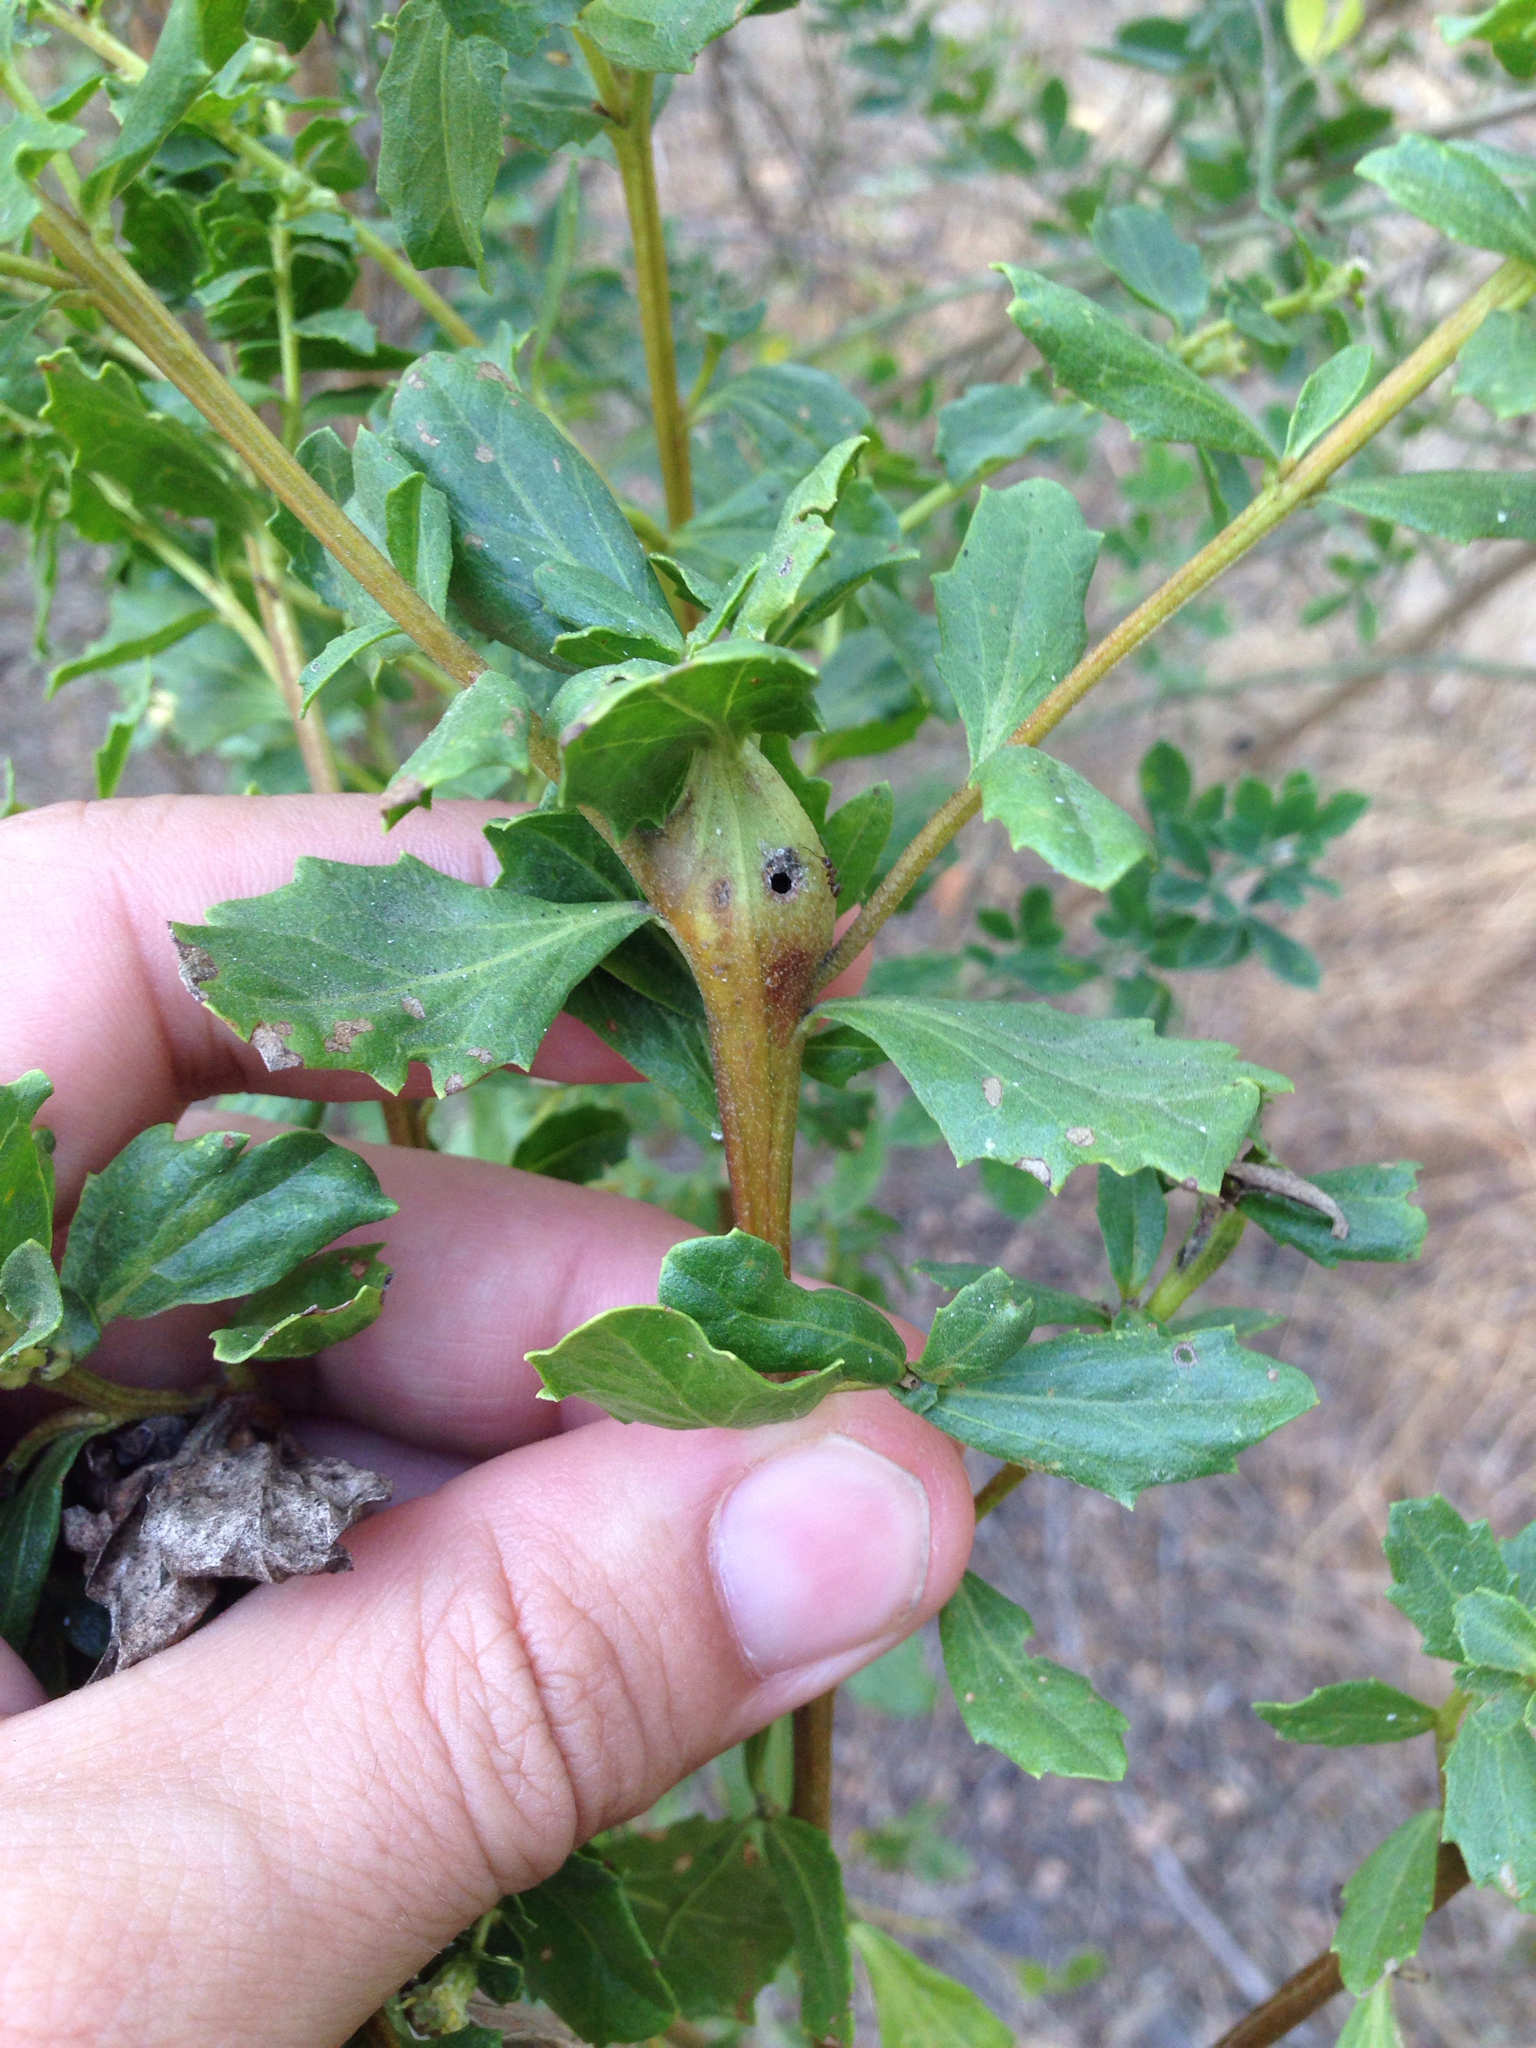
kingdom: Plantae
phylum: Tracheophyta
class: Magnoliopsida
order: Asterales
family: Asteraceae
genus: Baccharis
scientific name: Baccharis pilularis
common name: Coyotebrush
